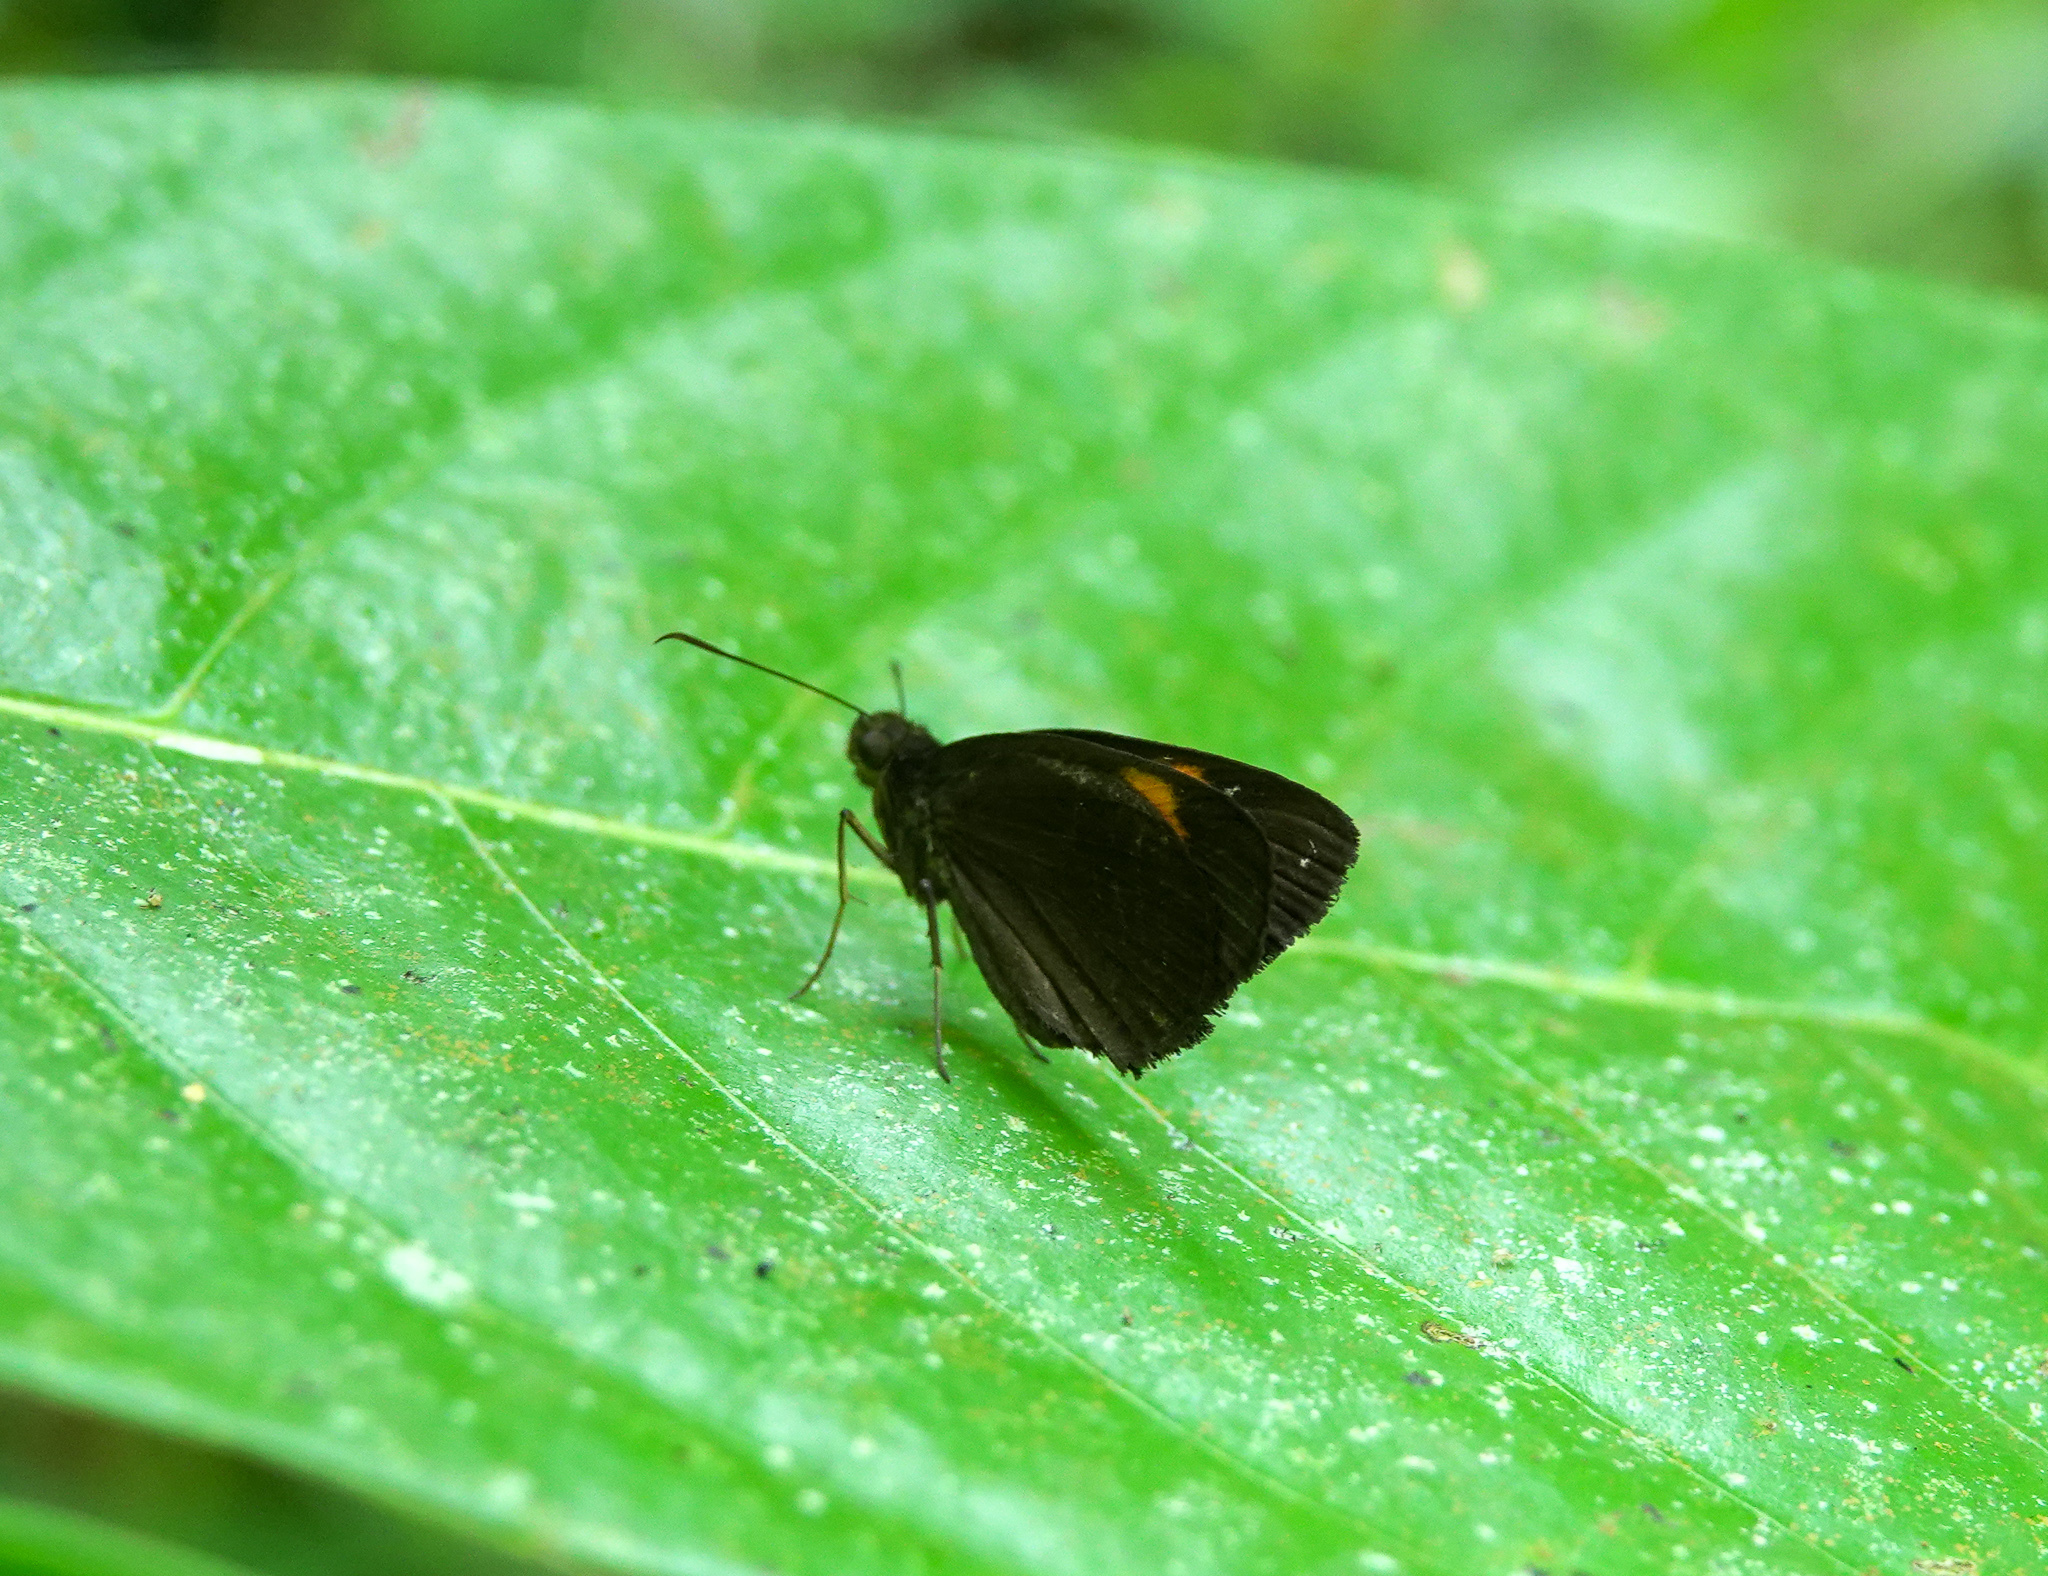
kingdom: Animalia
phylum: Arthropoda
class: Insecta
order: Lepidoptera
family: Hesperiidae
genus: Koruthaialos
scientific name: Koruthaialos sindu
